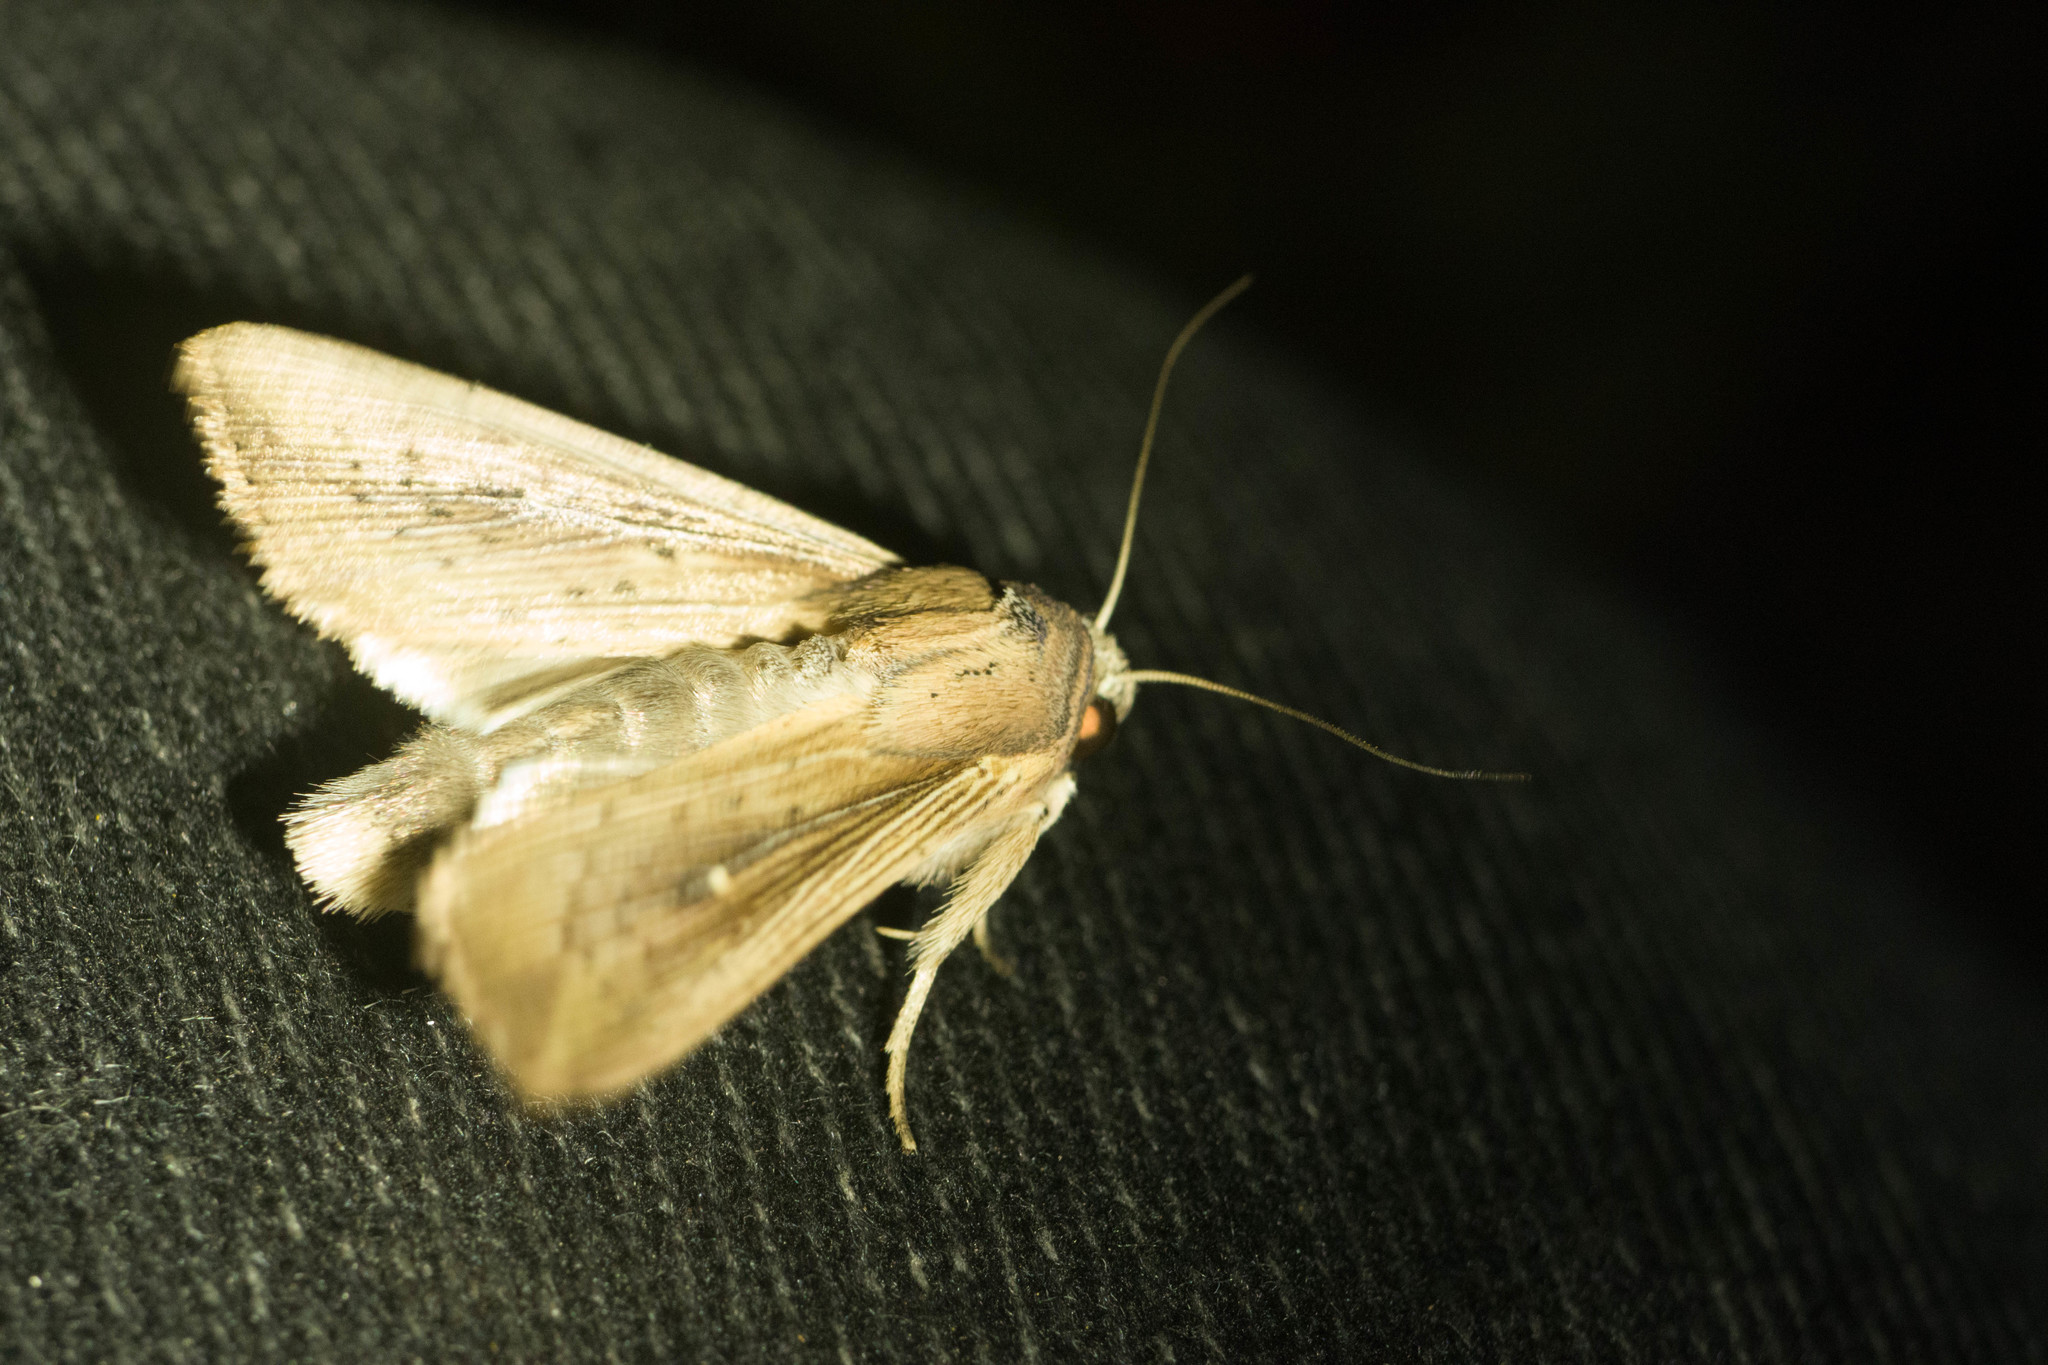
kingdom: Animalia
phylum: Arthropoda
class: Insecta
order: Lepidoptera
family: Noctuidae
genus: Leucania
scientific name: Leucania striata
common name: Moth
